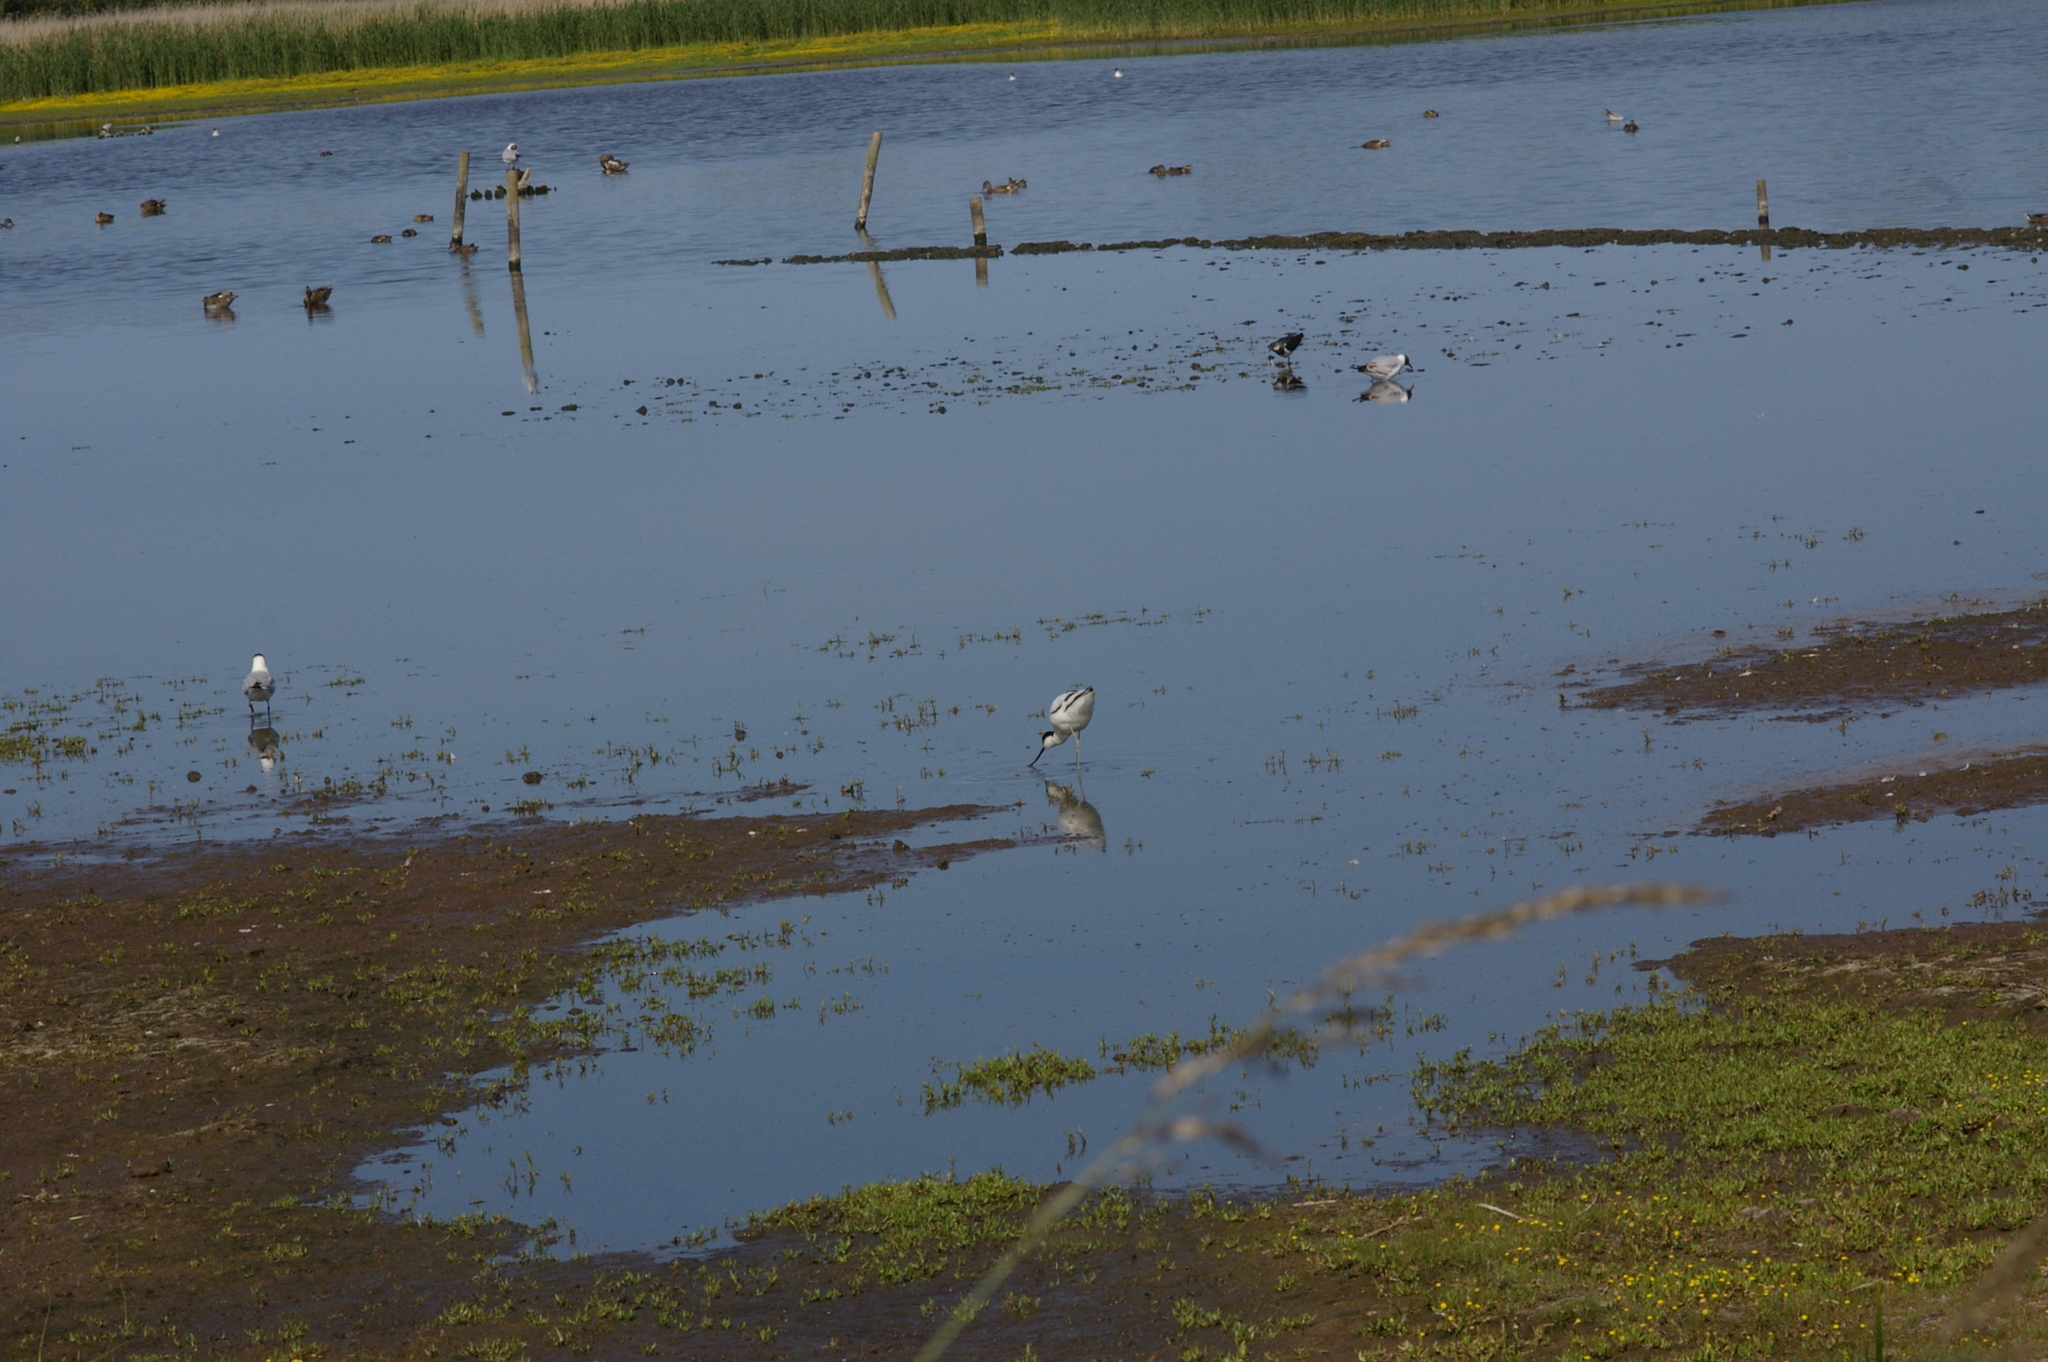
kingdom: Animalia
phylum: Chordata
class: Aves
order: Charadriiformes
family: Recurvirostridae
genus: Recurvirostra
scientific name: Recurvirostra avosetta
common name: Pied avocet
